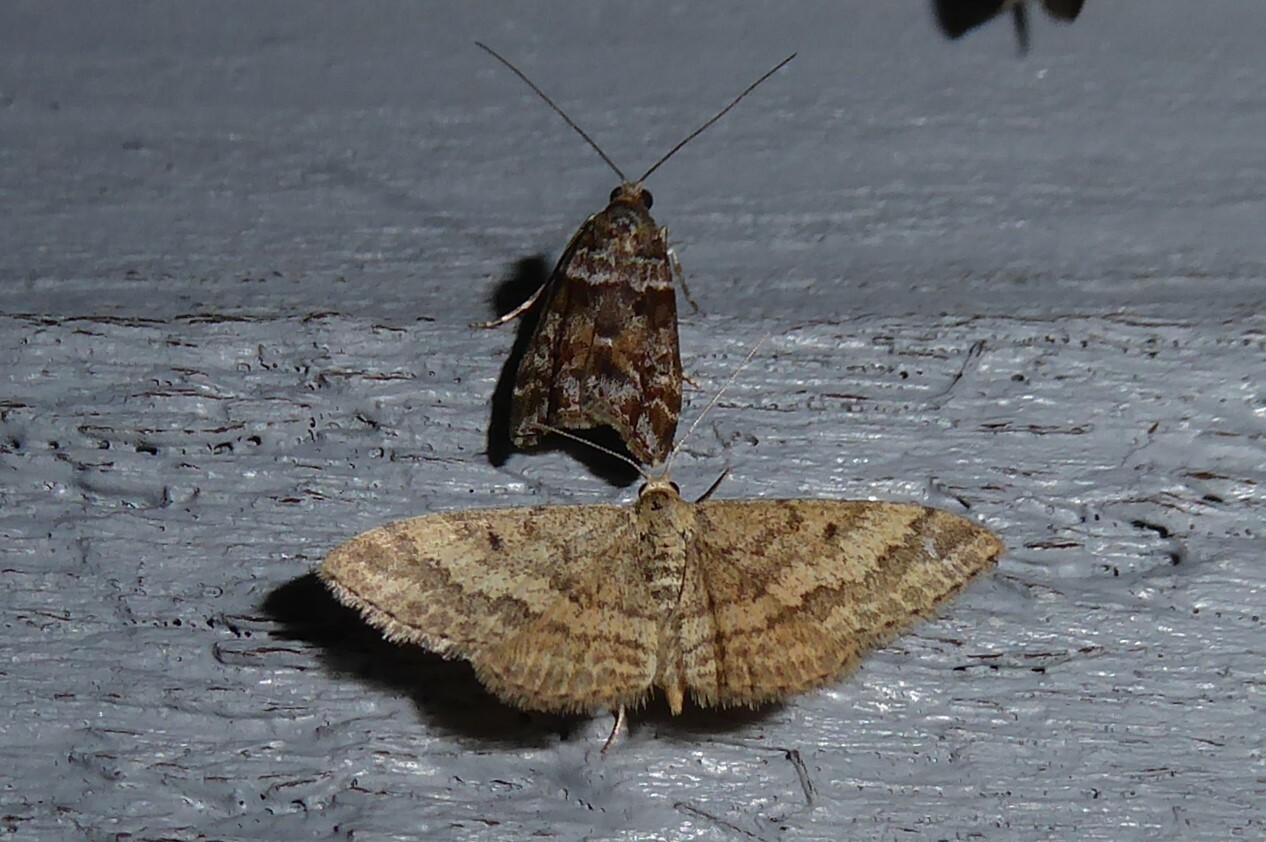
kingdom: Animalia
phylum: Arthropoda
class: Insecta
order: Lepidoptera
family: Geometridae
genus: Scopula
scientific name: Scopula rubraria
